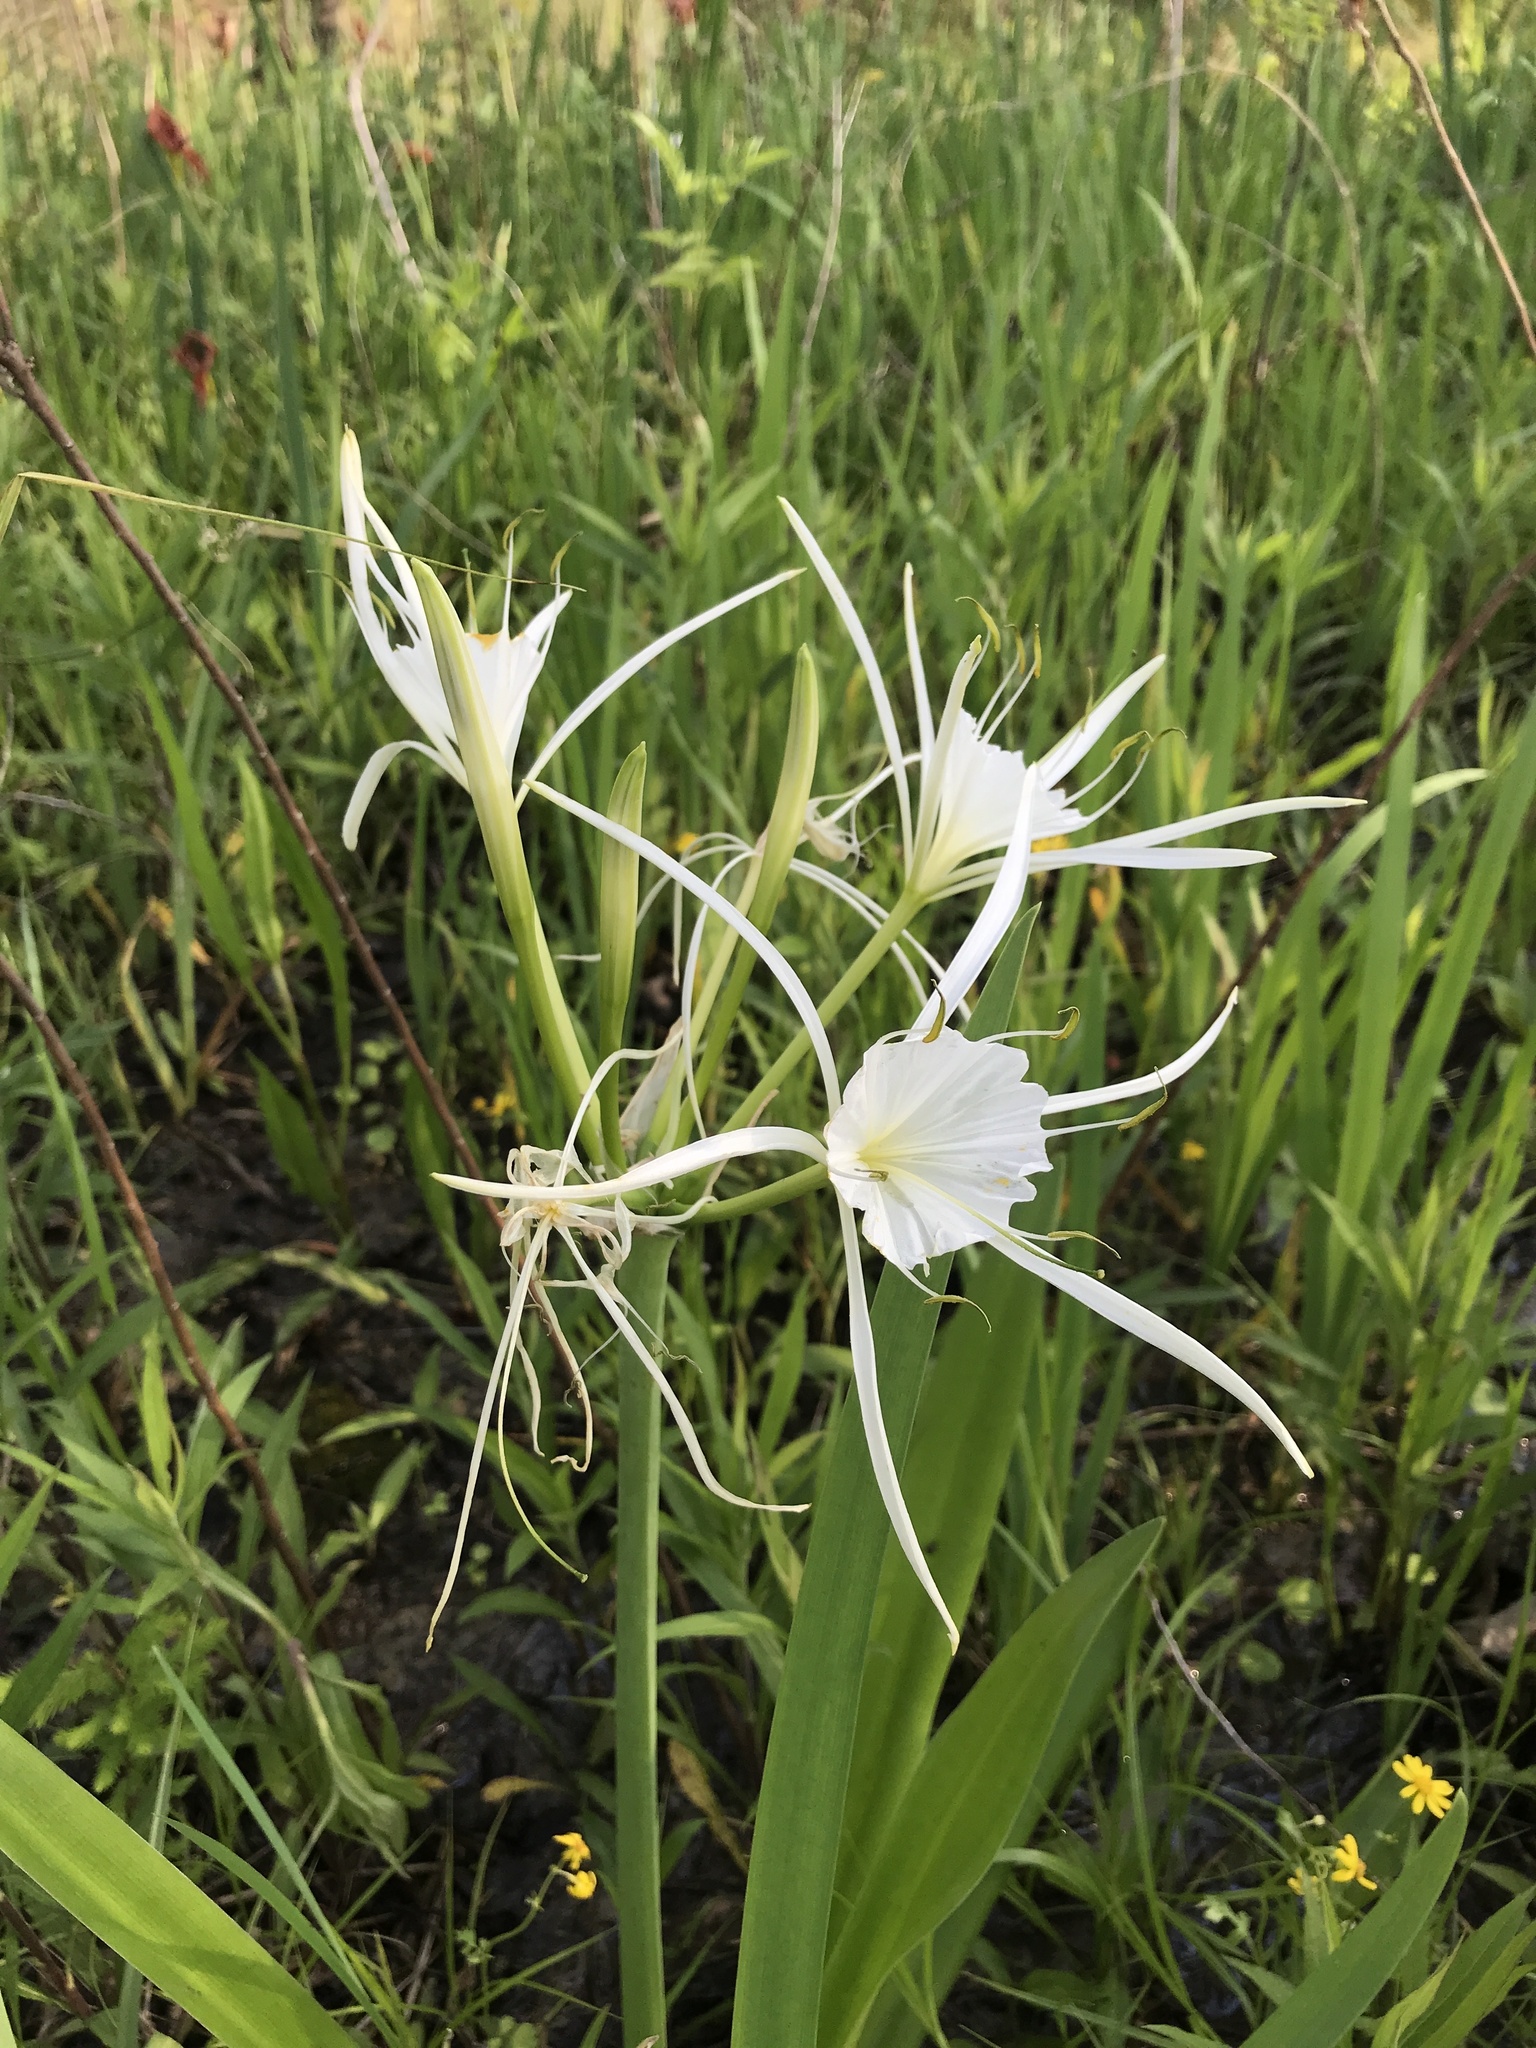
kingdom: Plantae
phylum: Tracheophyta
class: Liliopsida
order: Asparagales
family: Amaryllidaceae
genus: Hymenocallis
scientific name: Hymenocallis liriosme
